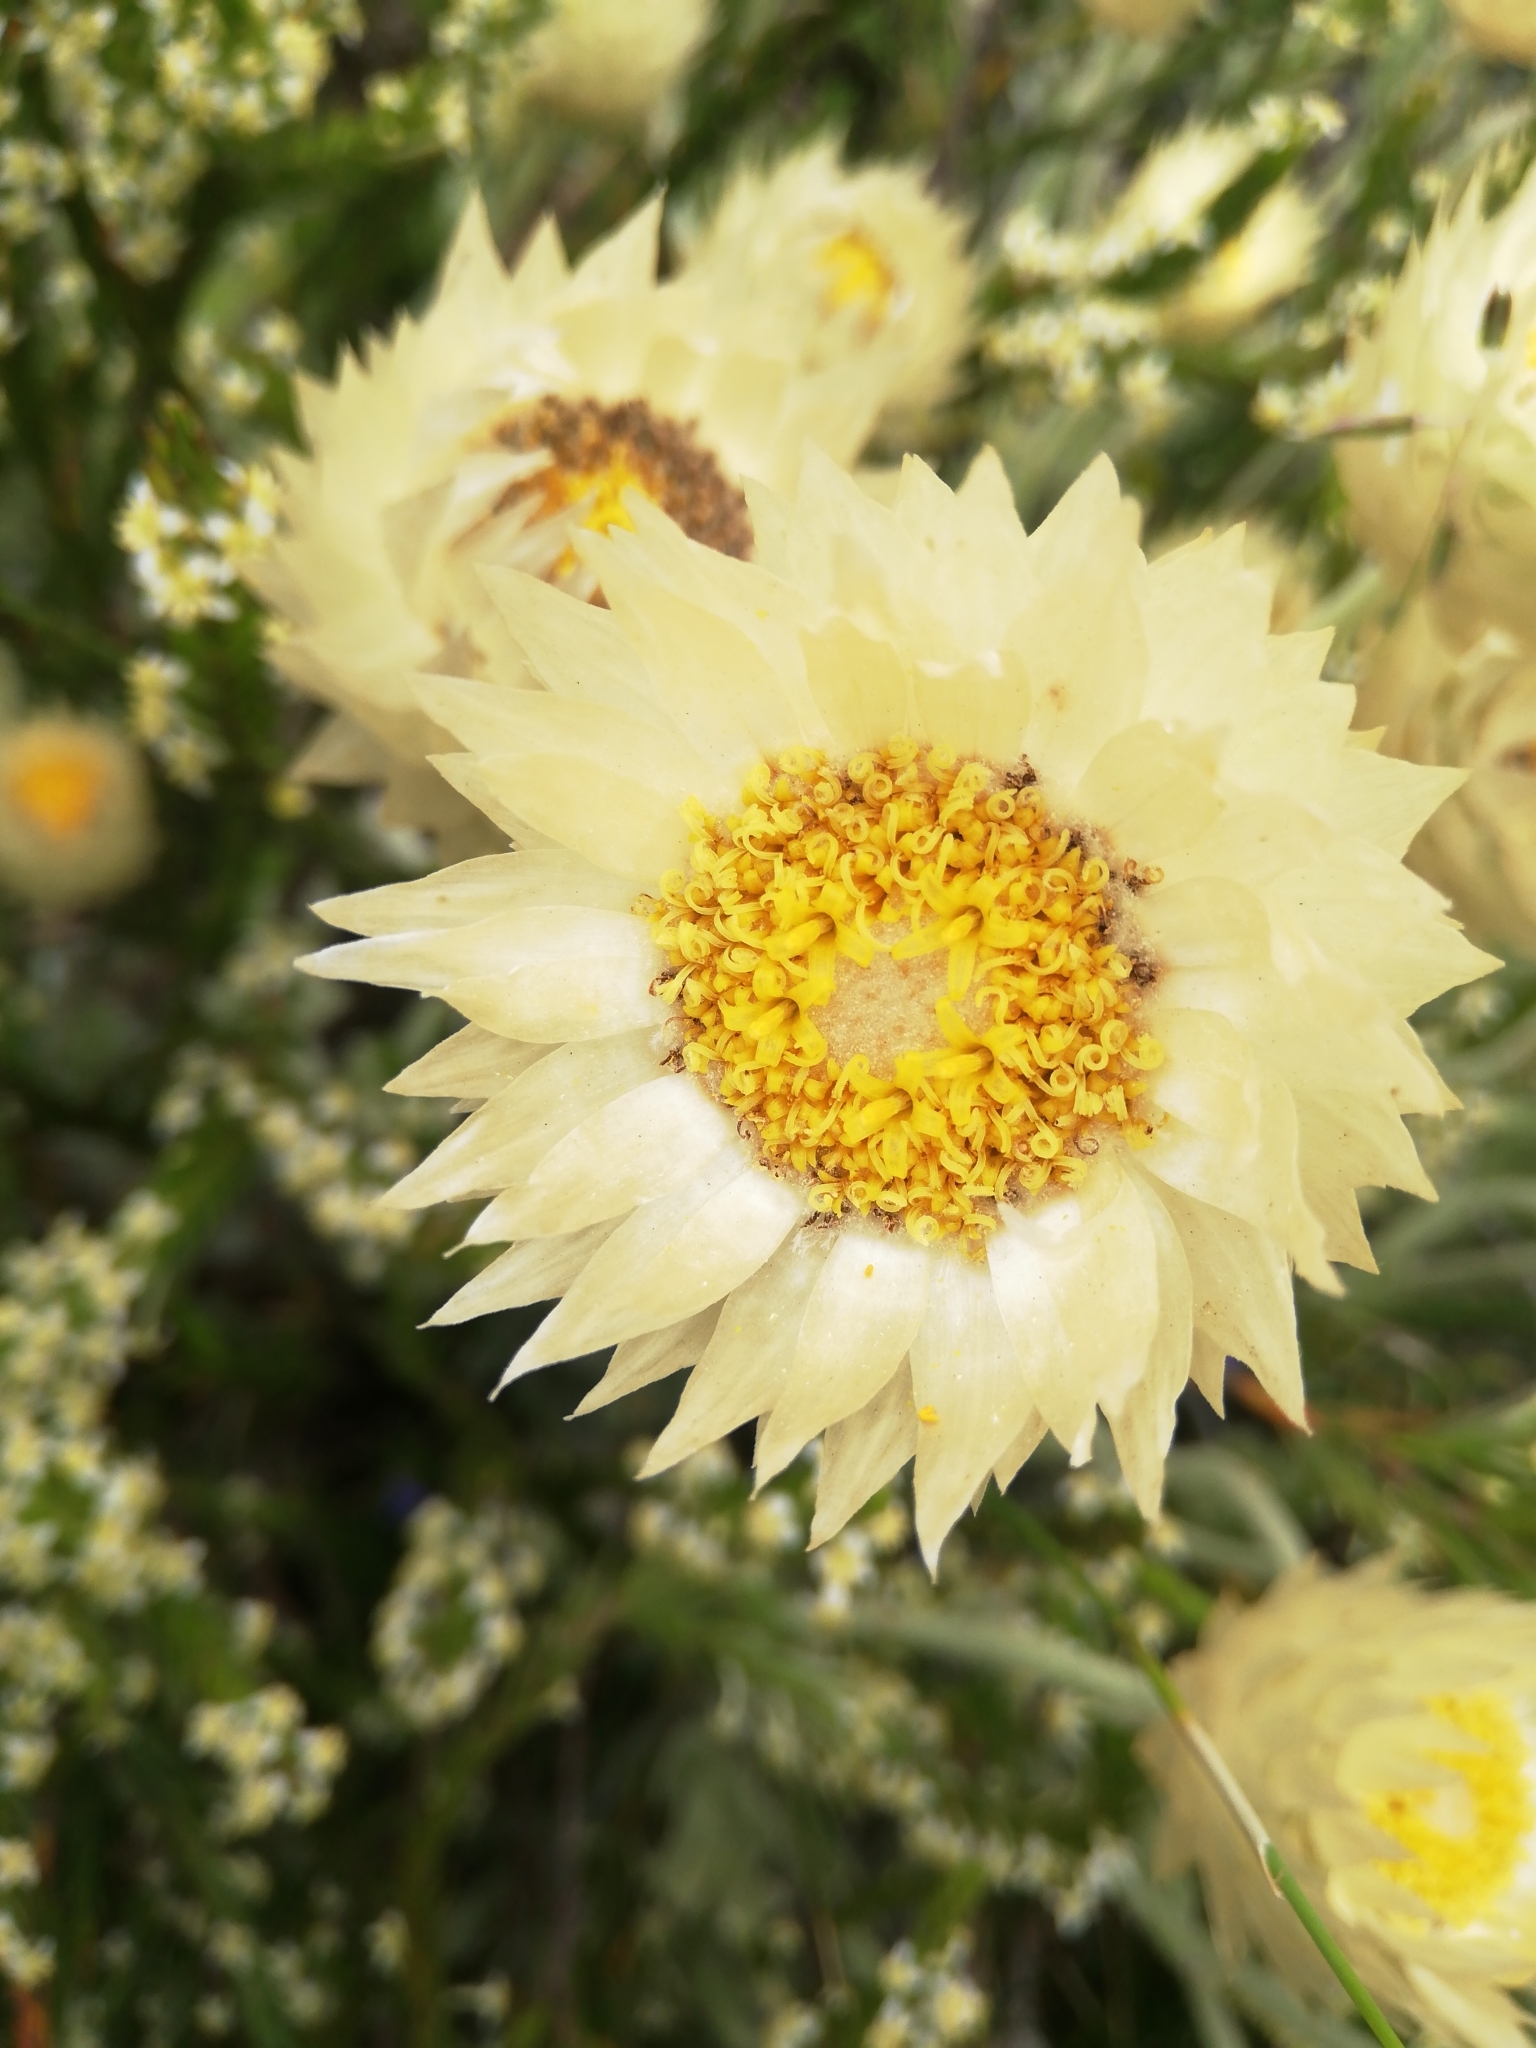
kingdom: Plantae
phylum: Tracheophyta
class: Magnoliopsida
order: Asterales
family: Asteraceae
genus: Syncarpha
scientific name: Syncarpha speciosissima
